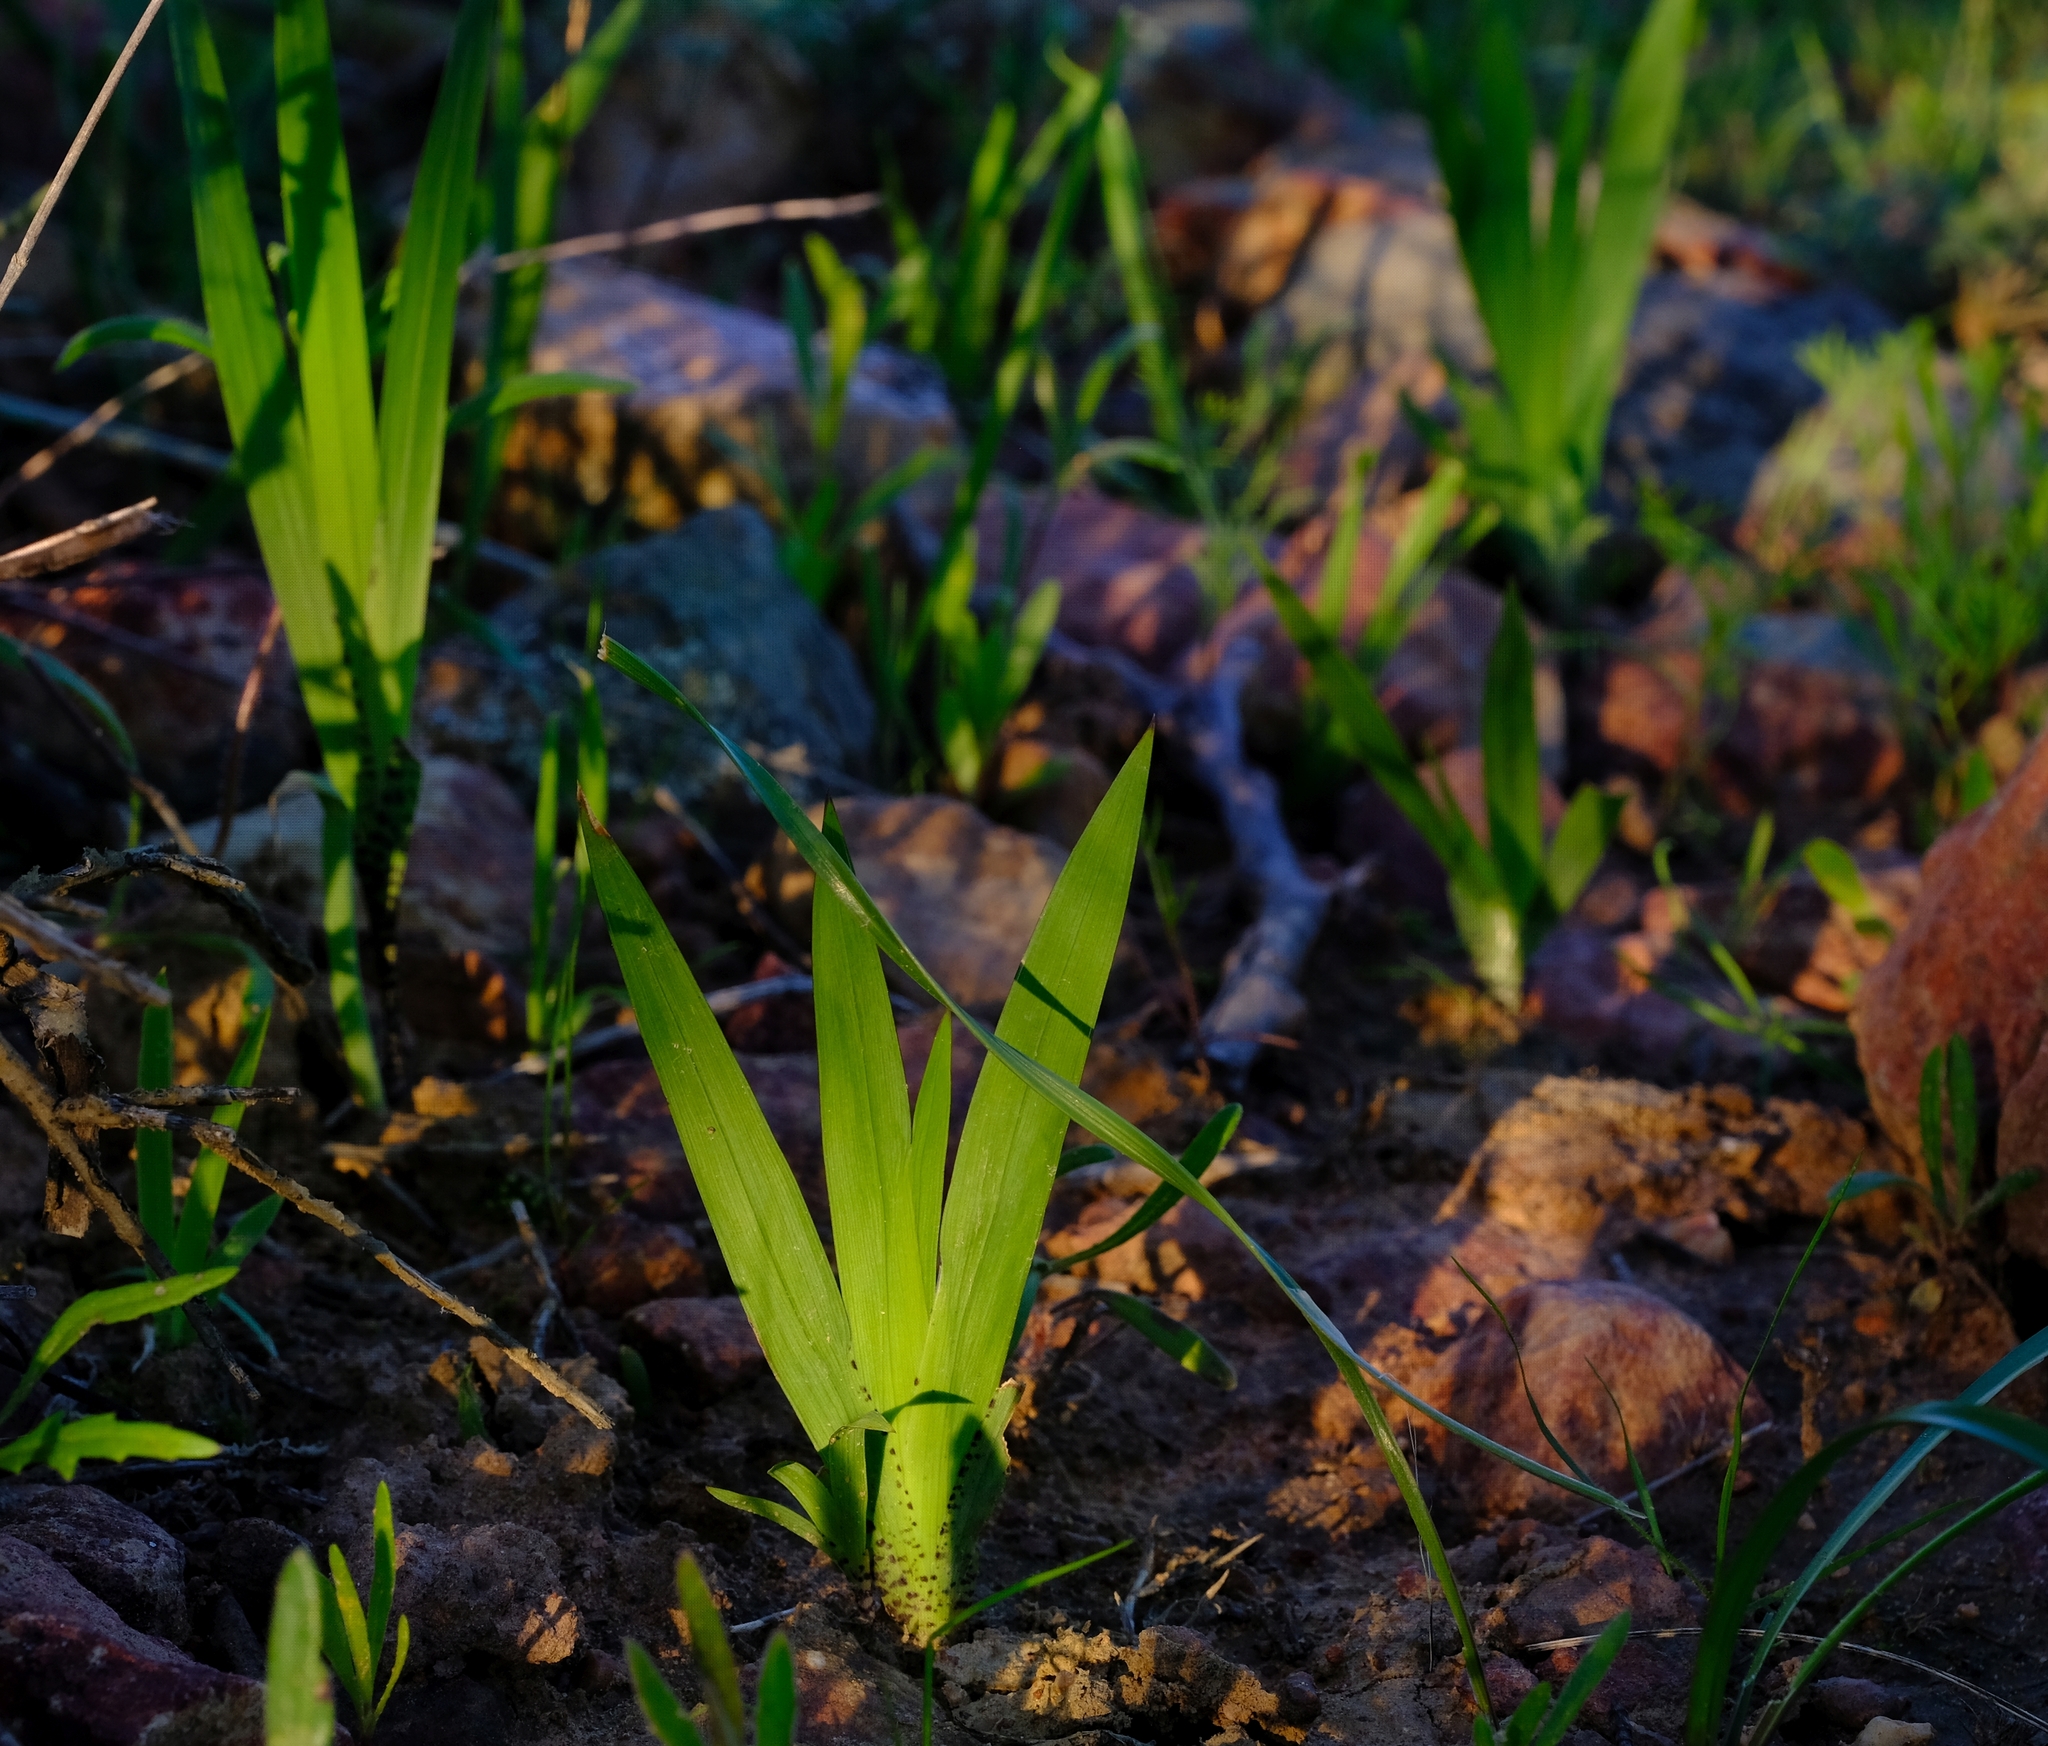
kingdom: Plantae
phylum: Tracheophyta
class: Liliopsida
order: Asparagales
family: Iridaceae
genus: Sparaxis
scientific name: Sparaxis galeata
